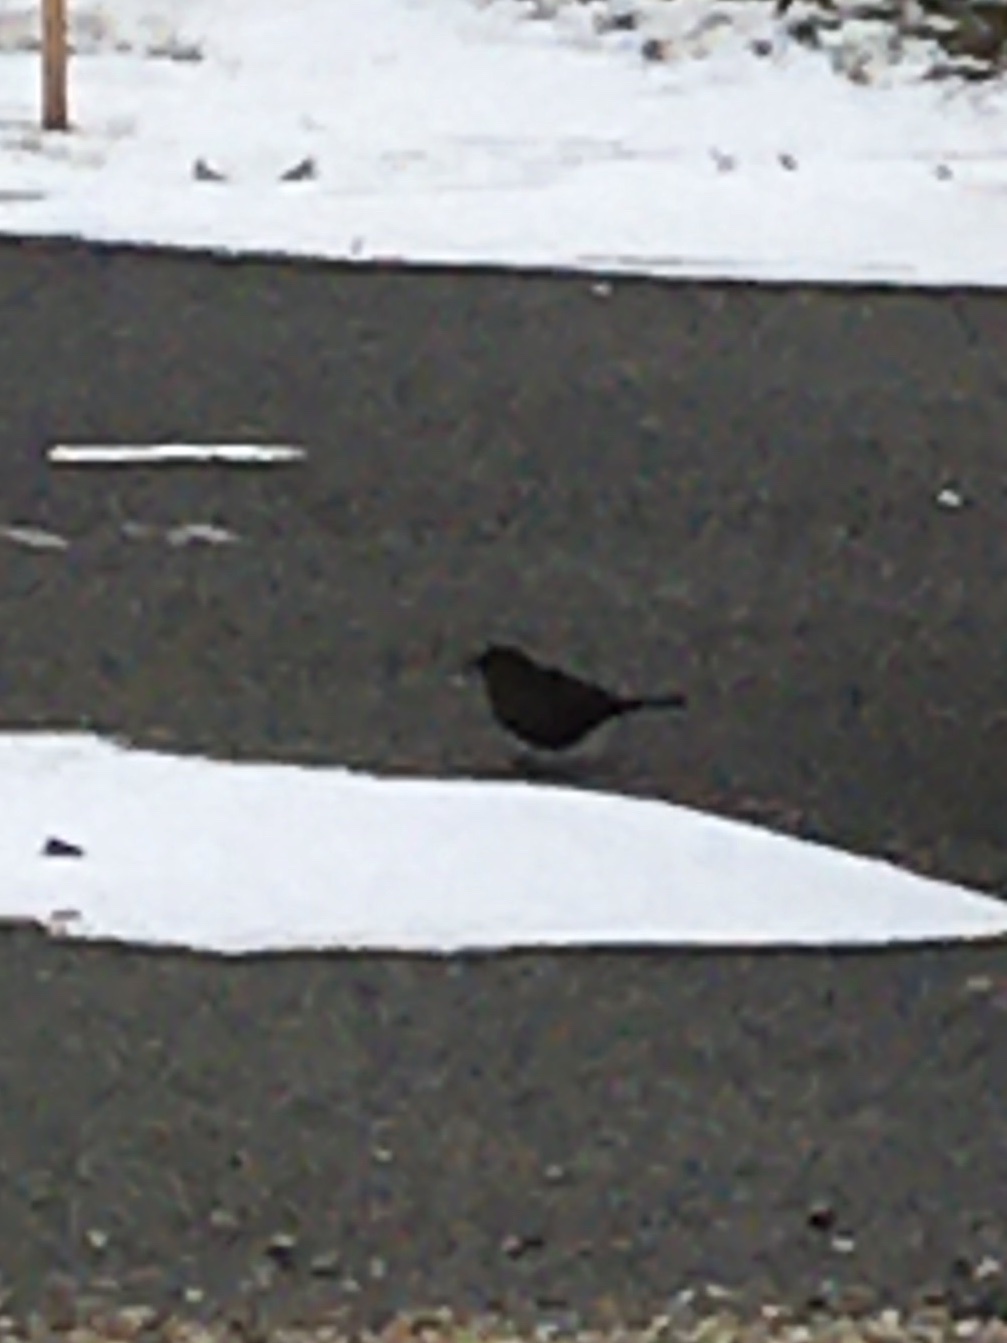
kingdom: Animalia
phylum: Chordata
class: Aves
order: Passeriformes
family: Turdidae
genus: Turdus
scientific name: Turdus merula
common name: Common blackbird
